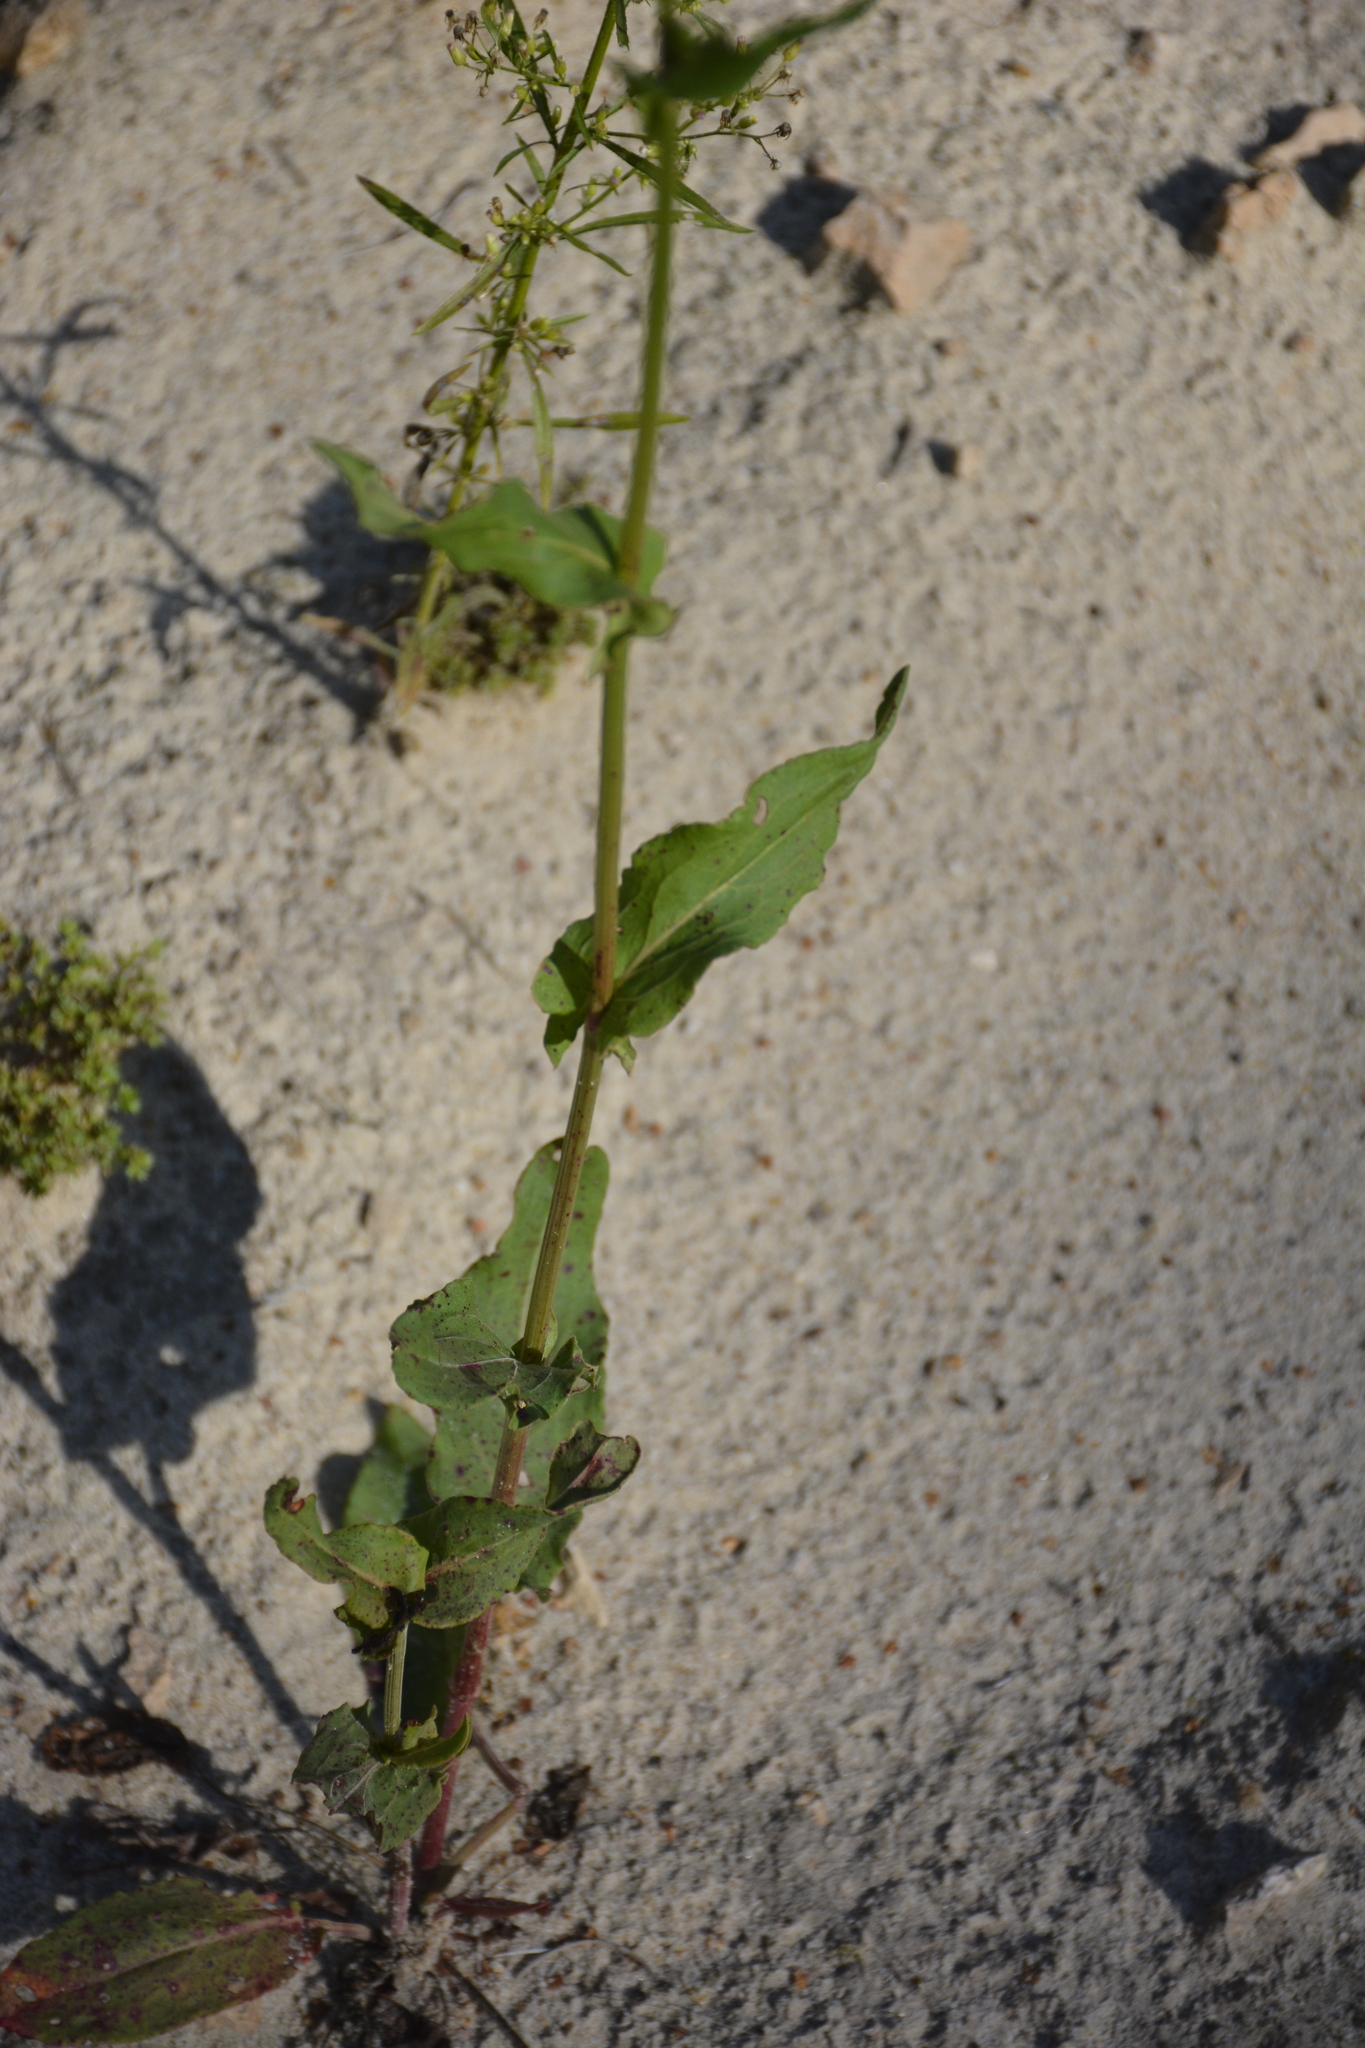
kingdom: Plantae
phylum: Tracheophyta
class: Magnoliopsida
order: Caryophyllales
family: Polygonaceae
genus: Rumex
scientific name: Rumex thyrsiflorus
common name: Garden sorrel
